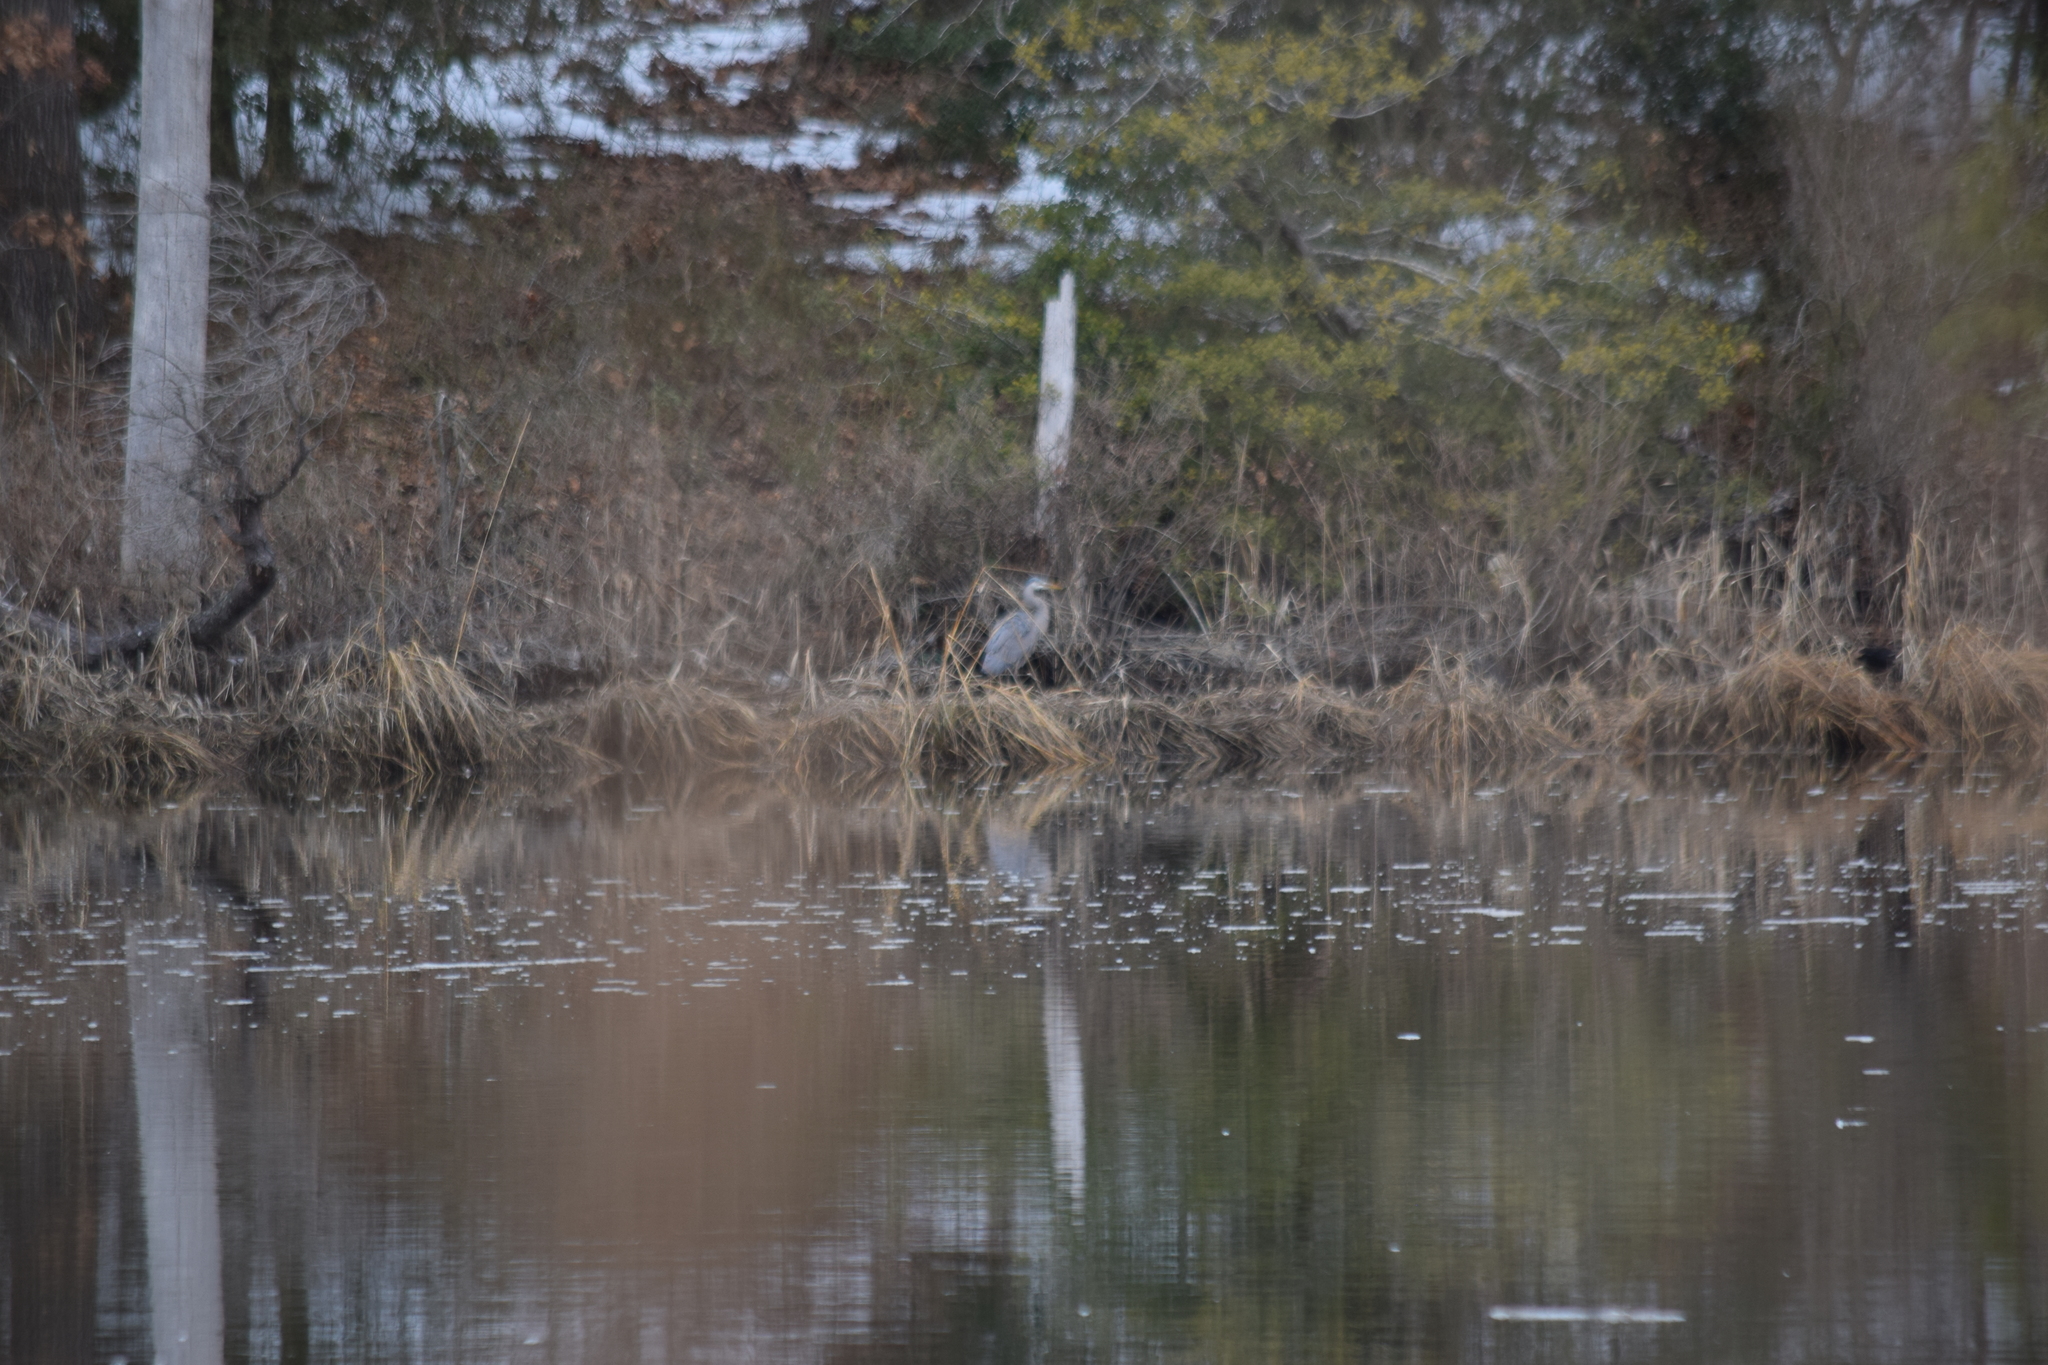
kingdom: Animalia
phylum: Chordata
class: Aves
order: Pelecaniformes
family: Ardeidae
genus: Ardea
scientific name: Ardea herodias
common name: Great blue heron
